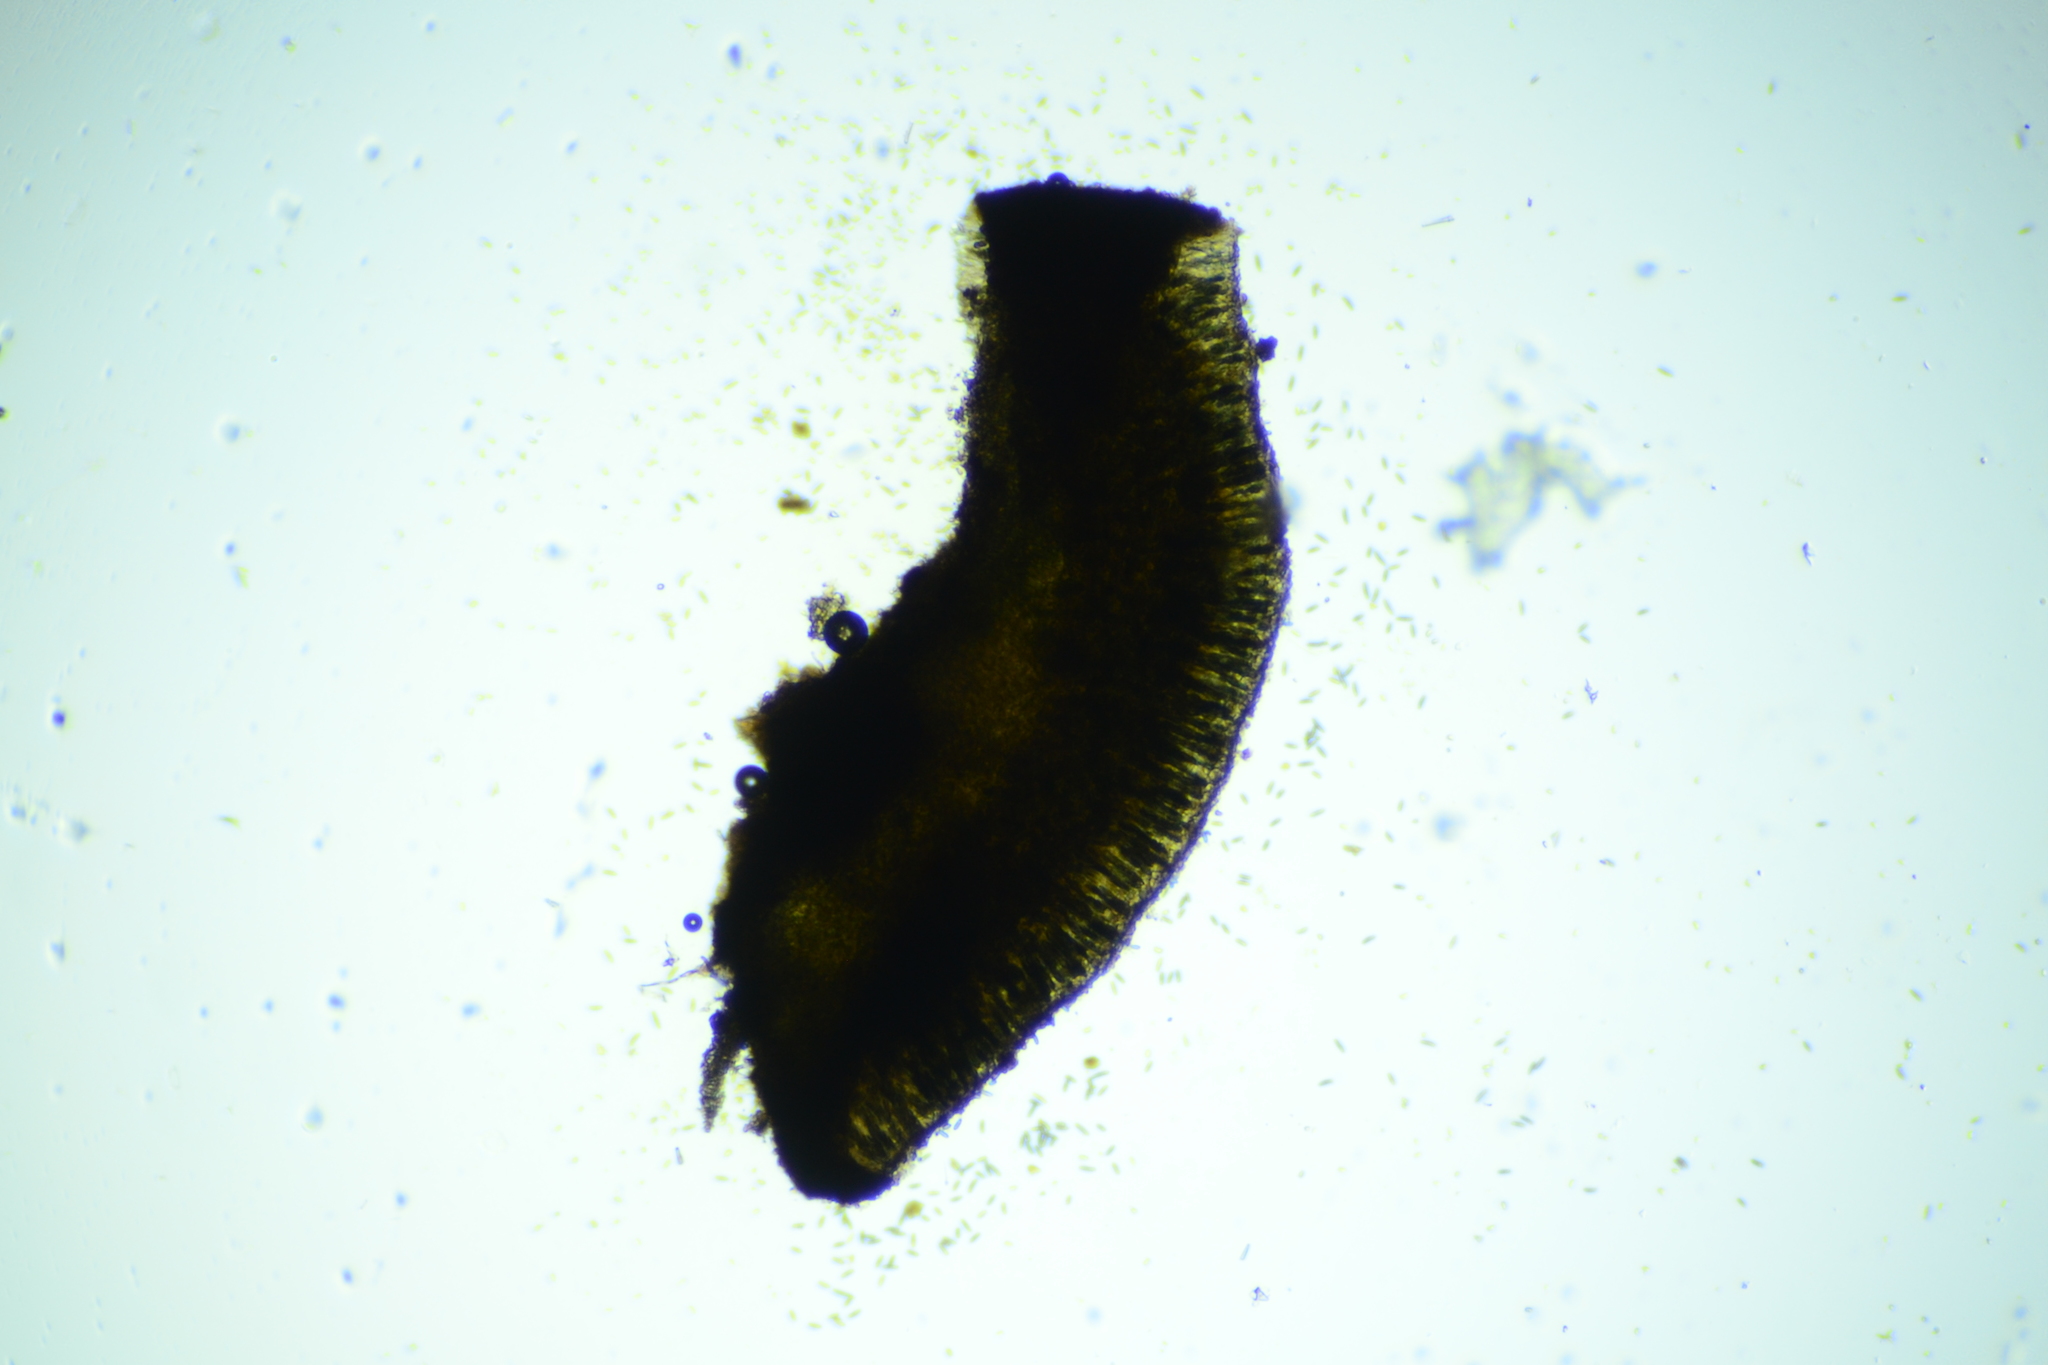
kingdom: Fungi
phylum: Ascomycota
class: Eurotiomycetes
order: Sclerococcales
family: Sclerococcaceae
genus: Sclerococcum
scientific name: Sclerococcum stygium
